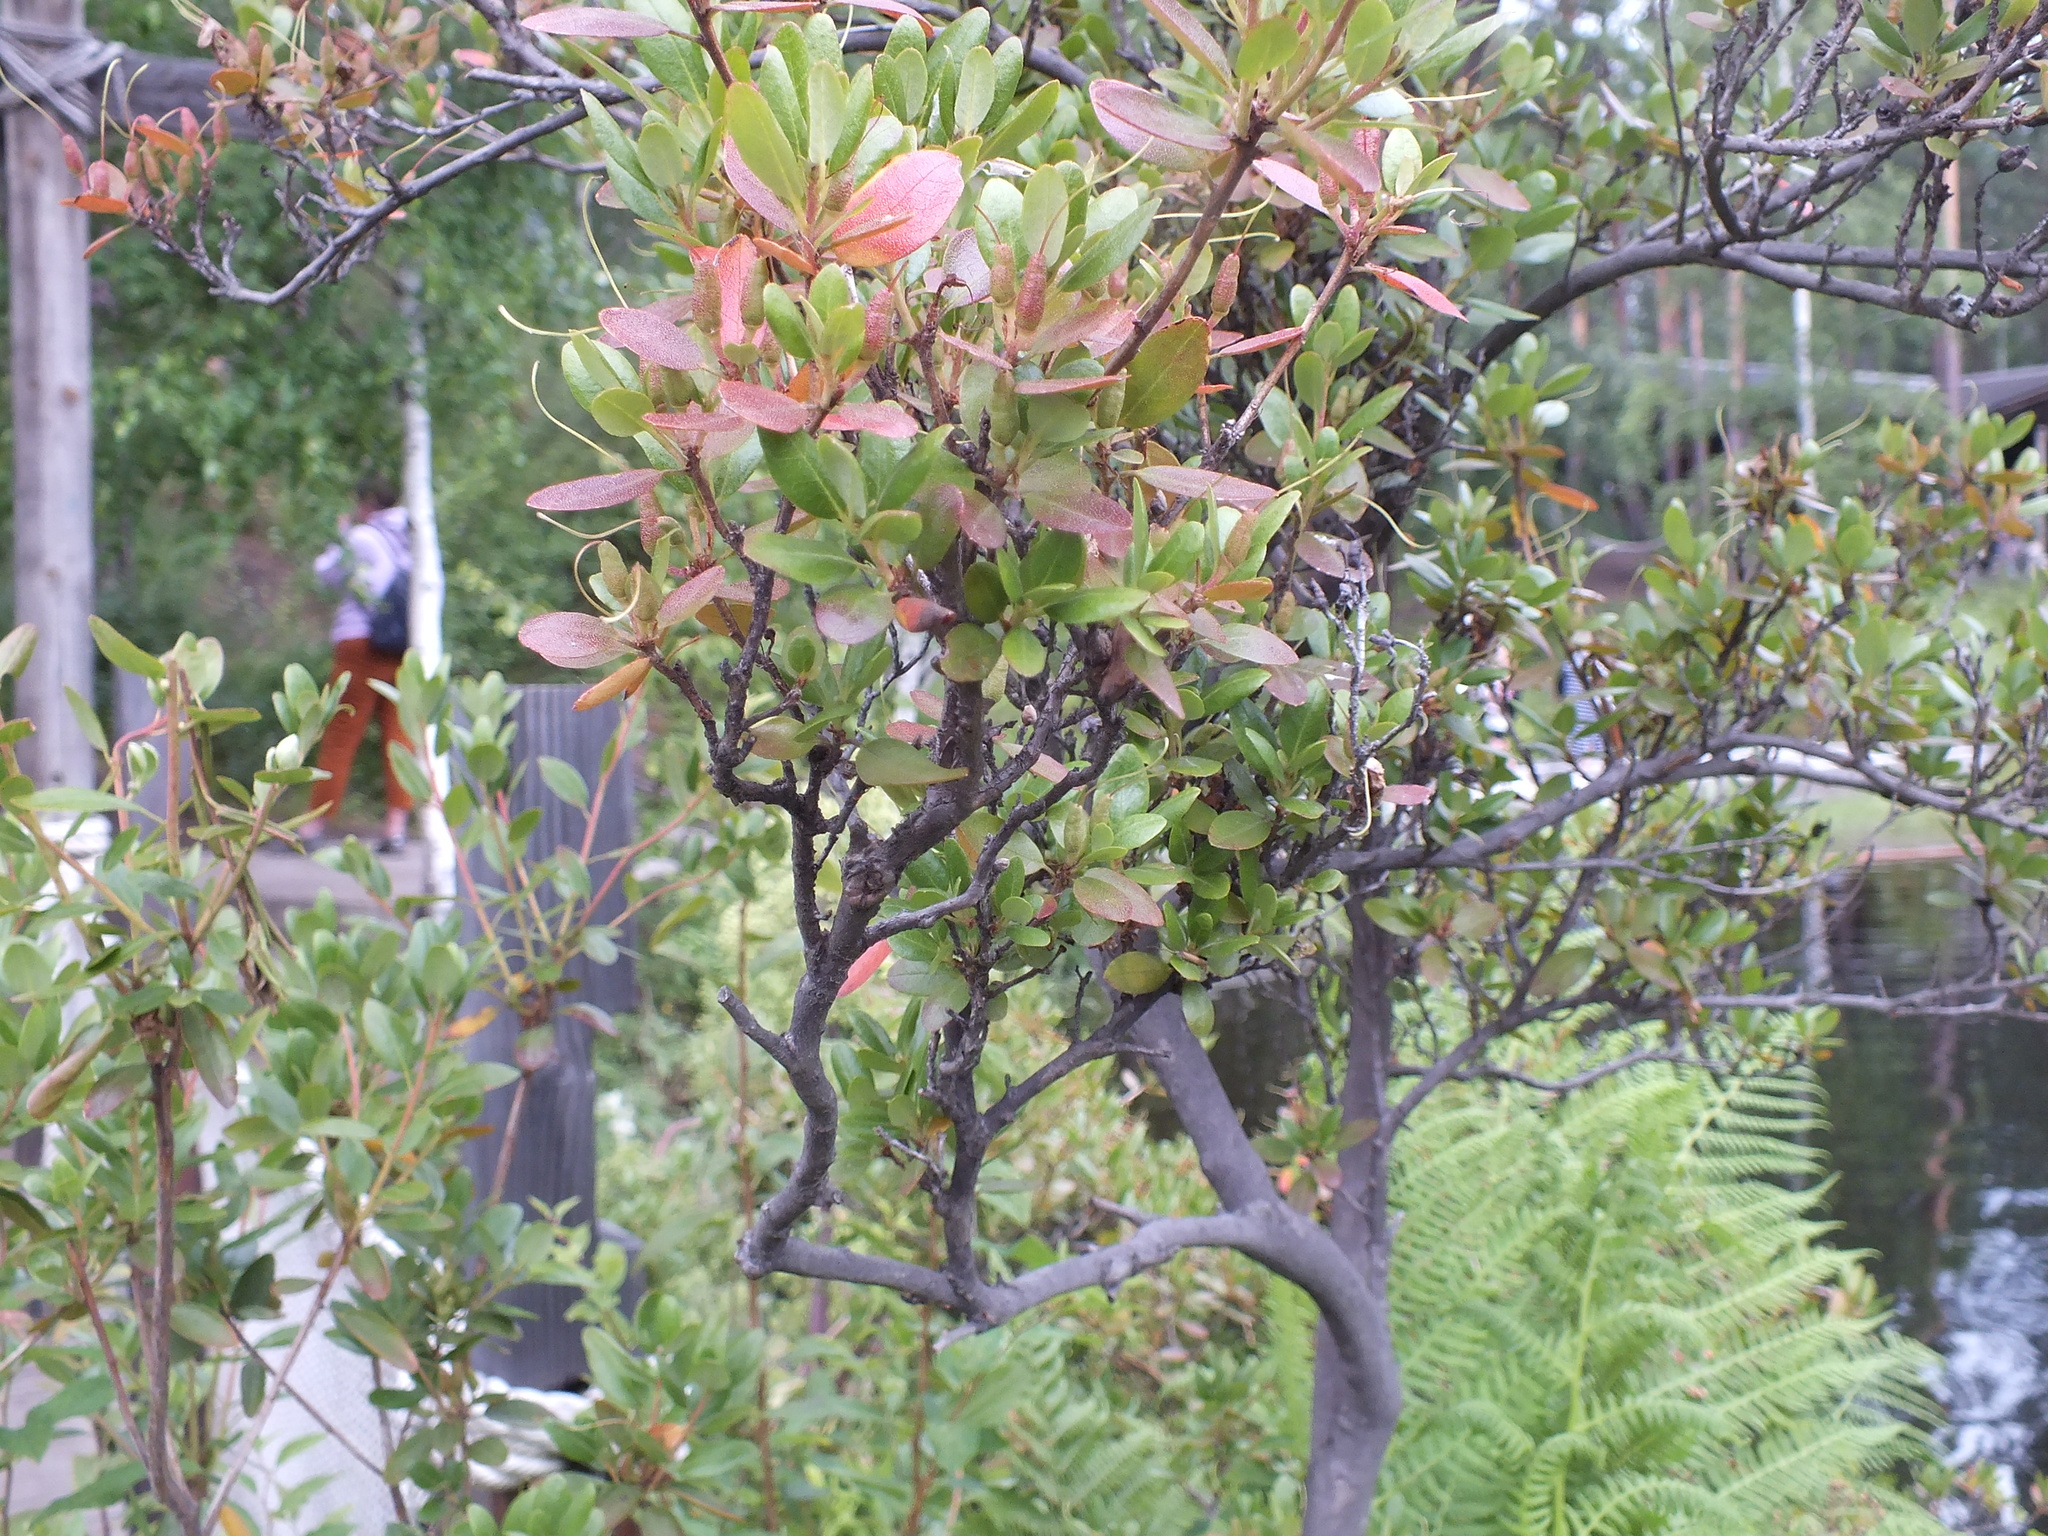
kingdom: Plantae
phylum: Tracheophyta
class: Magnoliopsida
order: Ericales
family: Ericaceae
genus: Rhododendron
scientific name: Rhododendron dauricum
